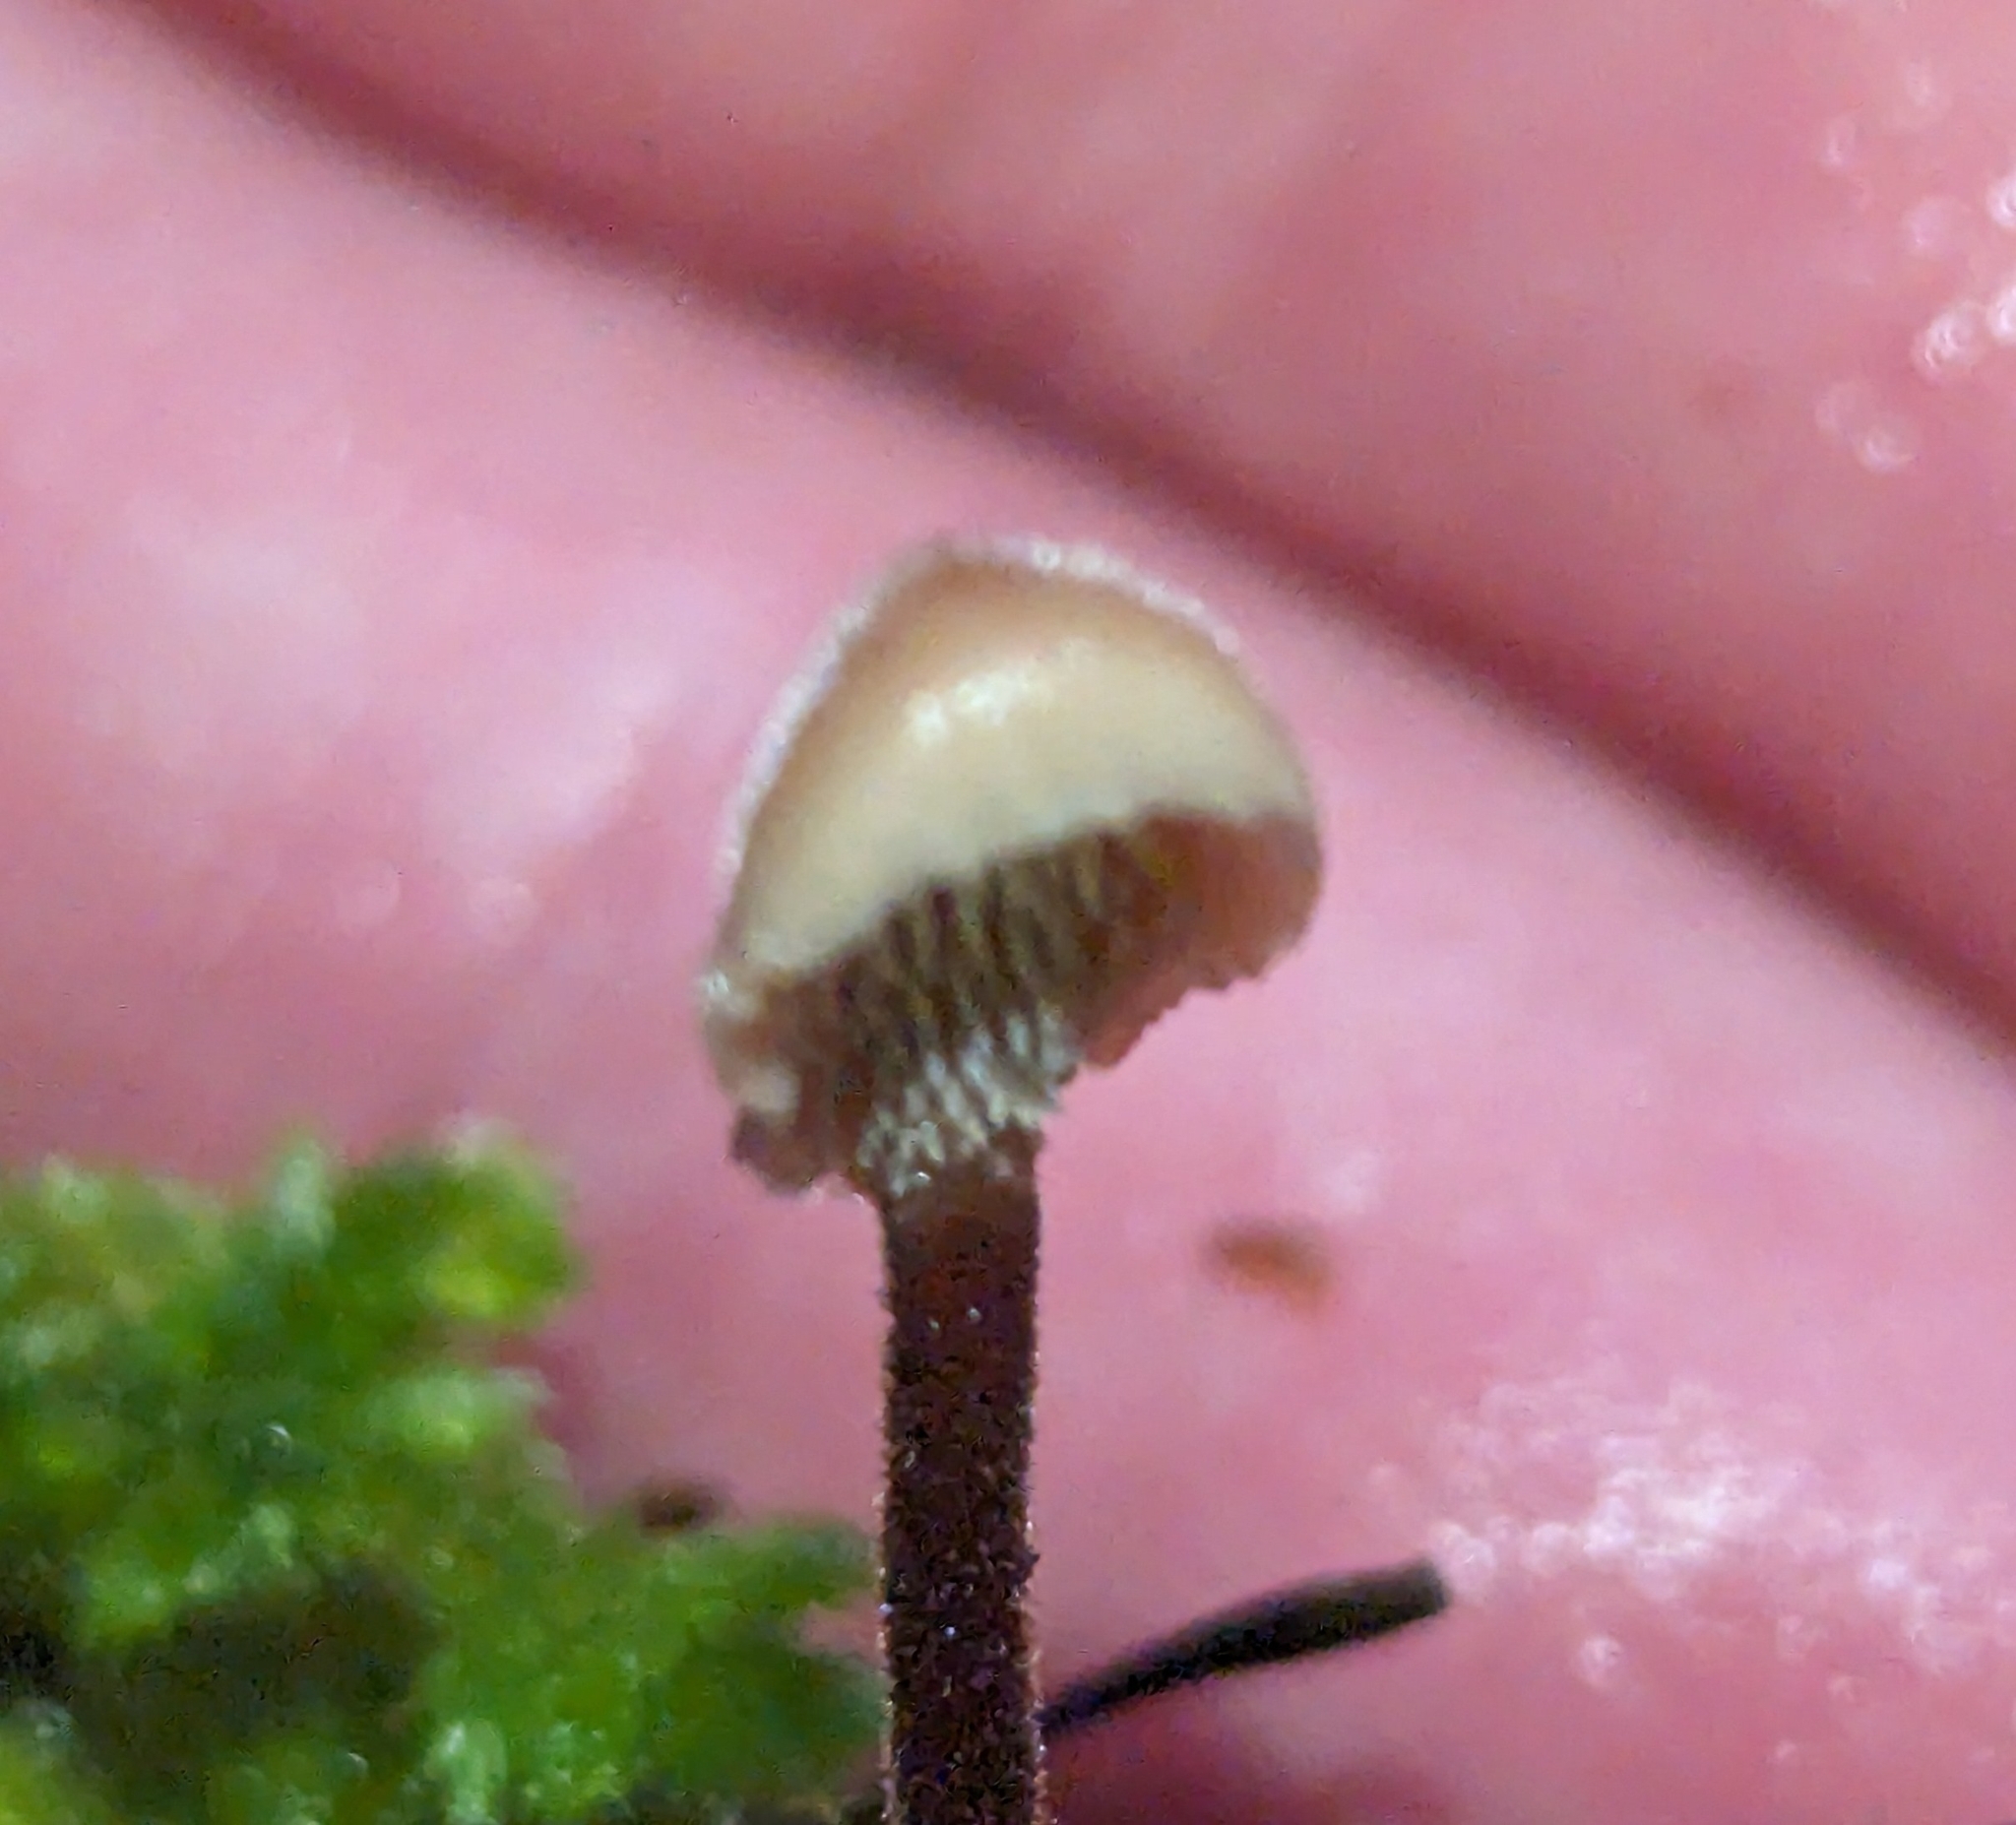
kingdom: Fungi
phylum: Basidiomycota
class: Agaricomycetes
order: Russulales
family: Auriscalpiaceae
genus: Auriscalpium
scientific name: Auriscalpium vulgare
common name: Earpick fungus
